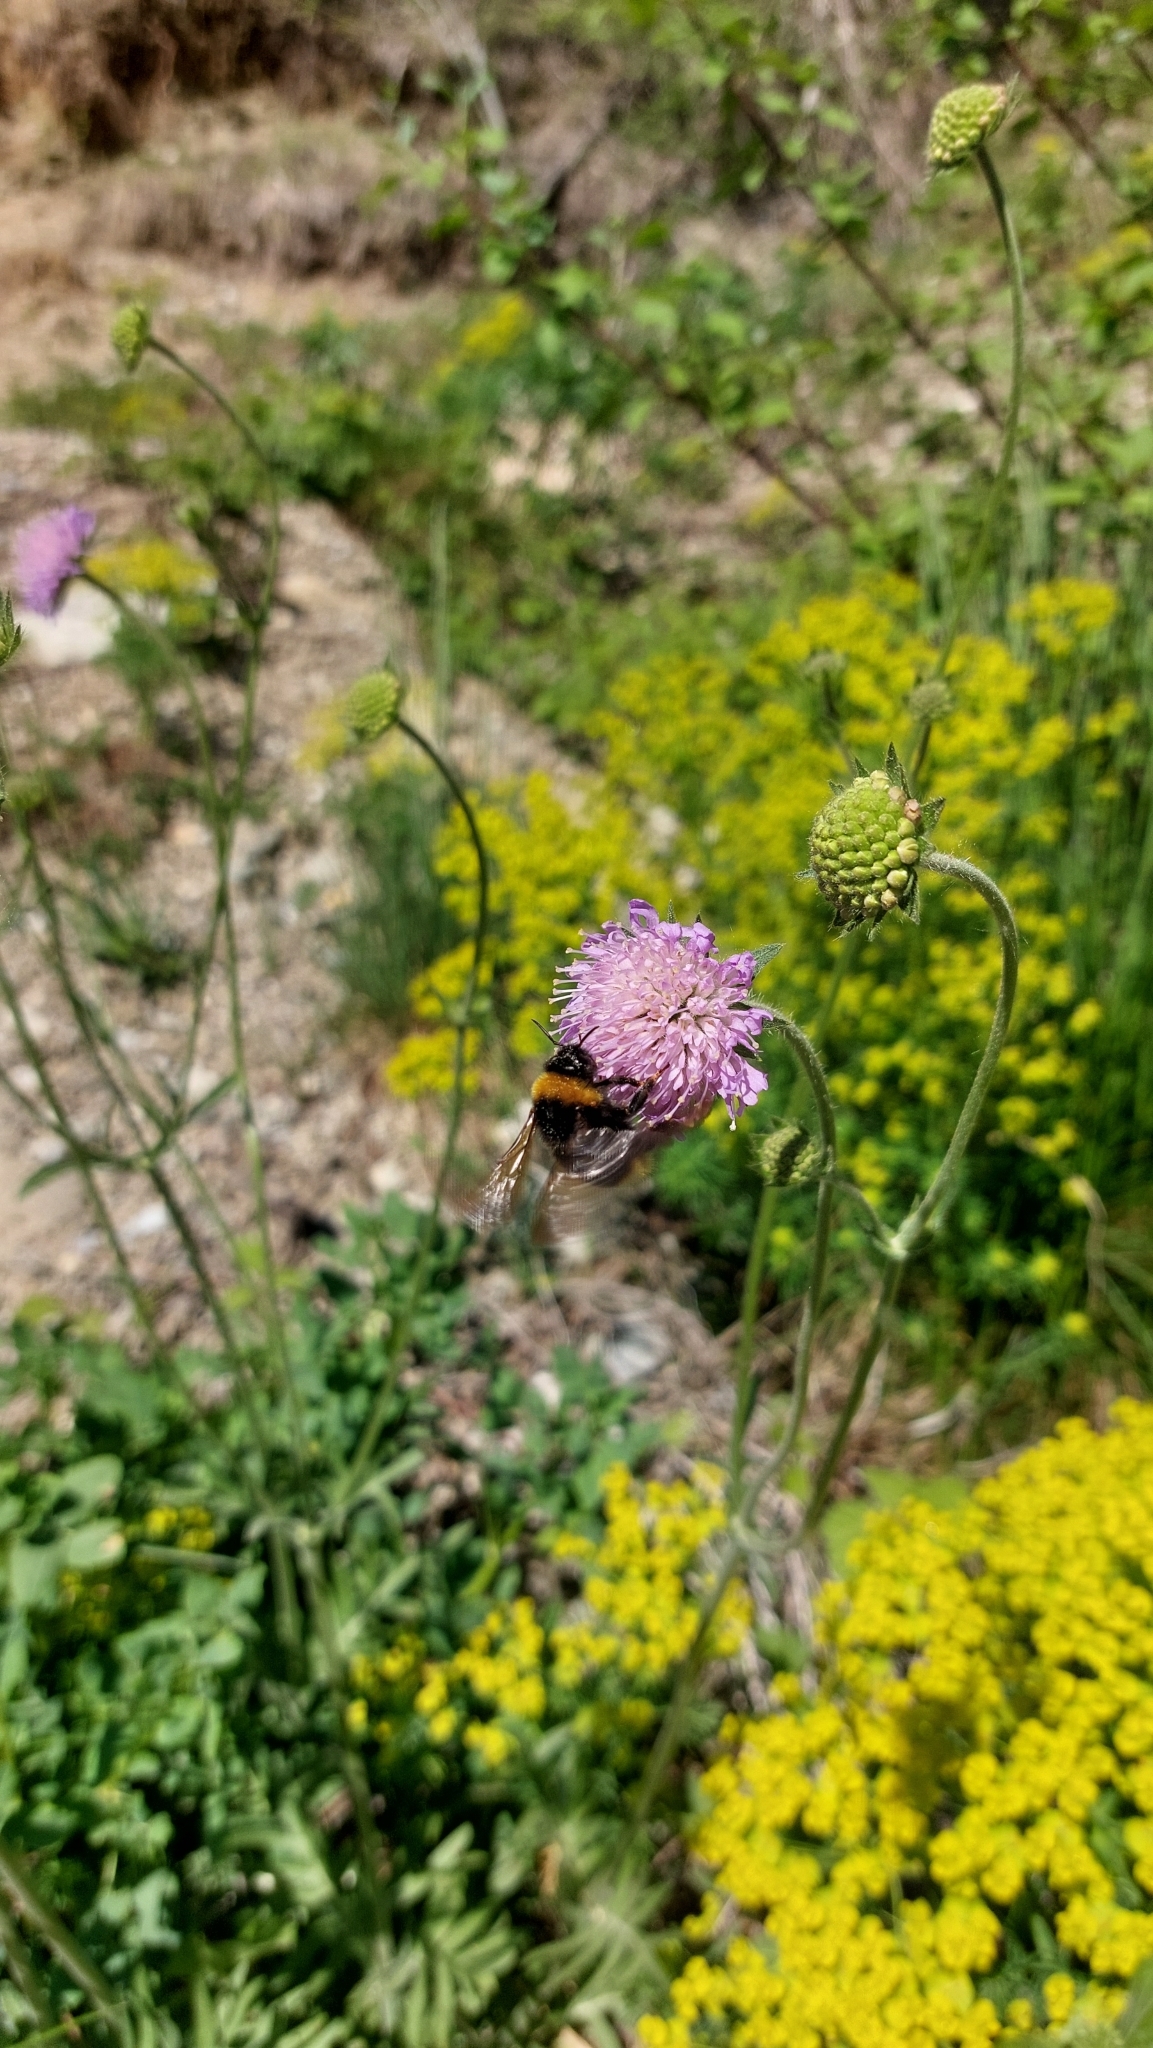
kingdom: Plantae
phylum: Tracheophyta
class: Magnoliopsida
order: Dipsacales
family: Caprifoliaceae
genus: Knautia
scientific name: Knautia arvensis
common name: Field scabiosa
